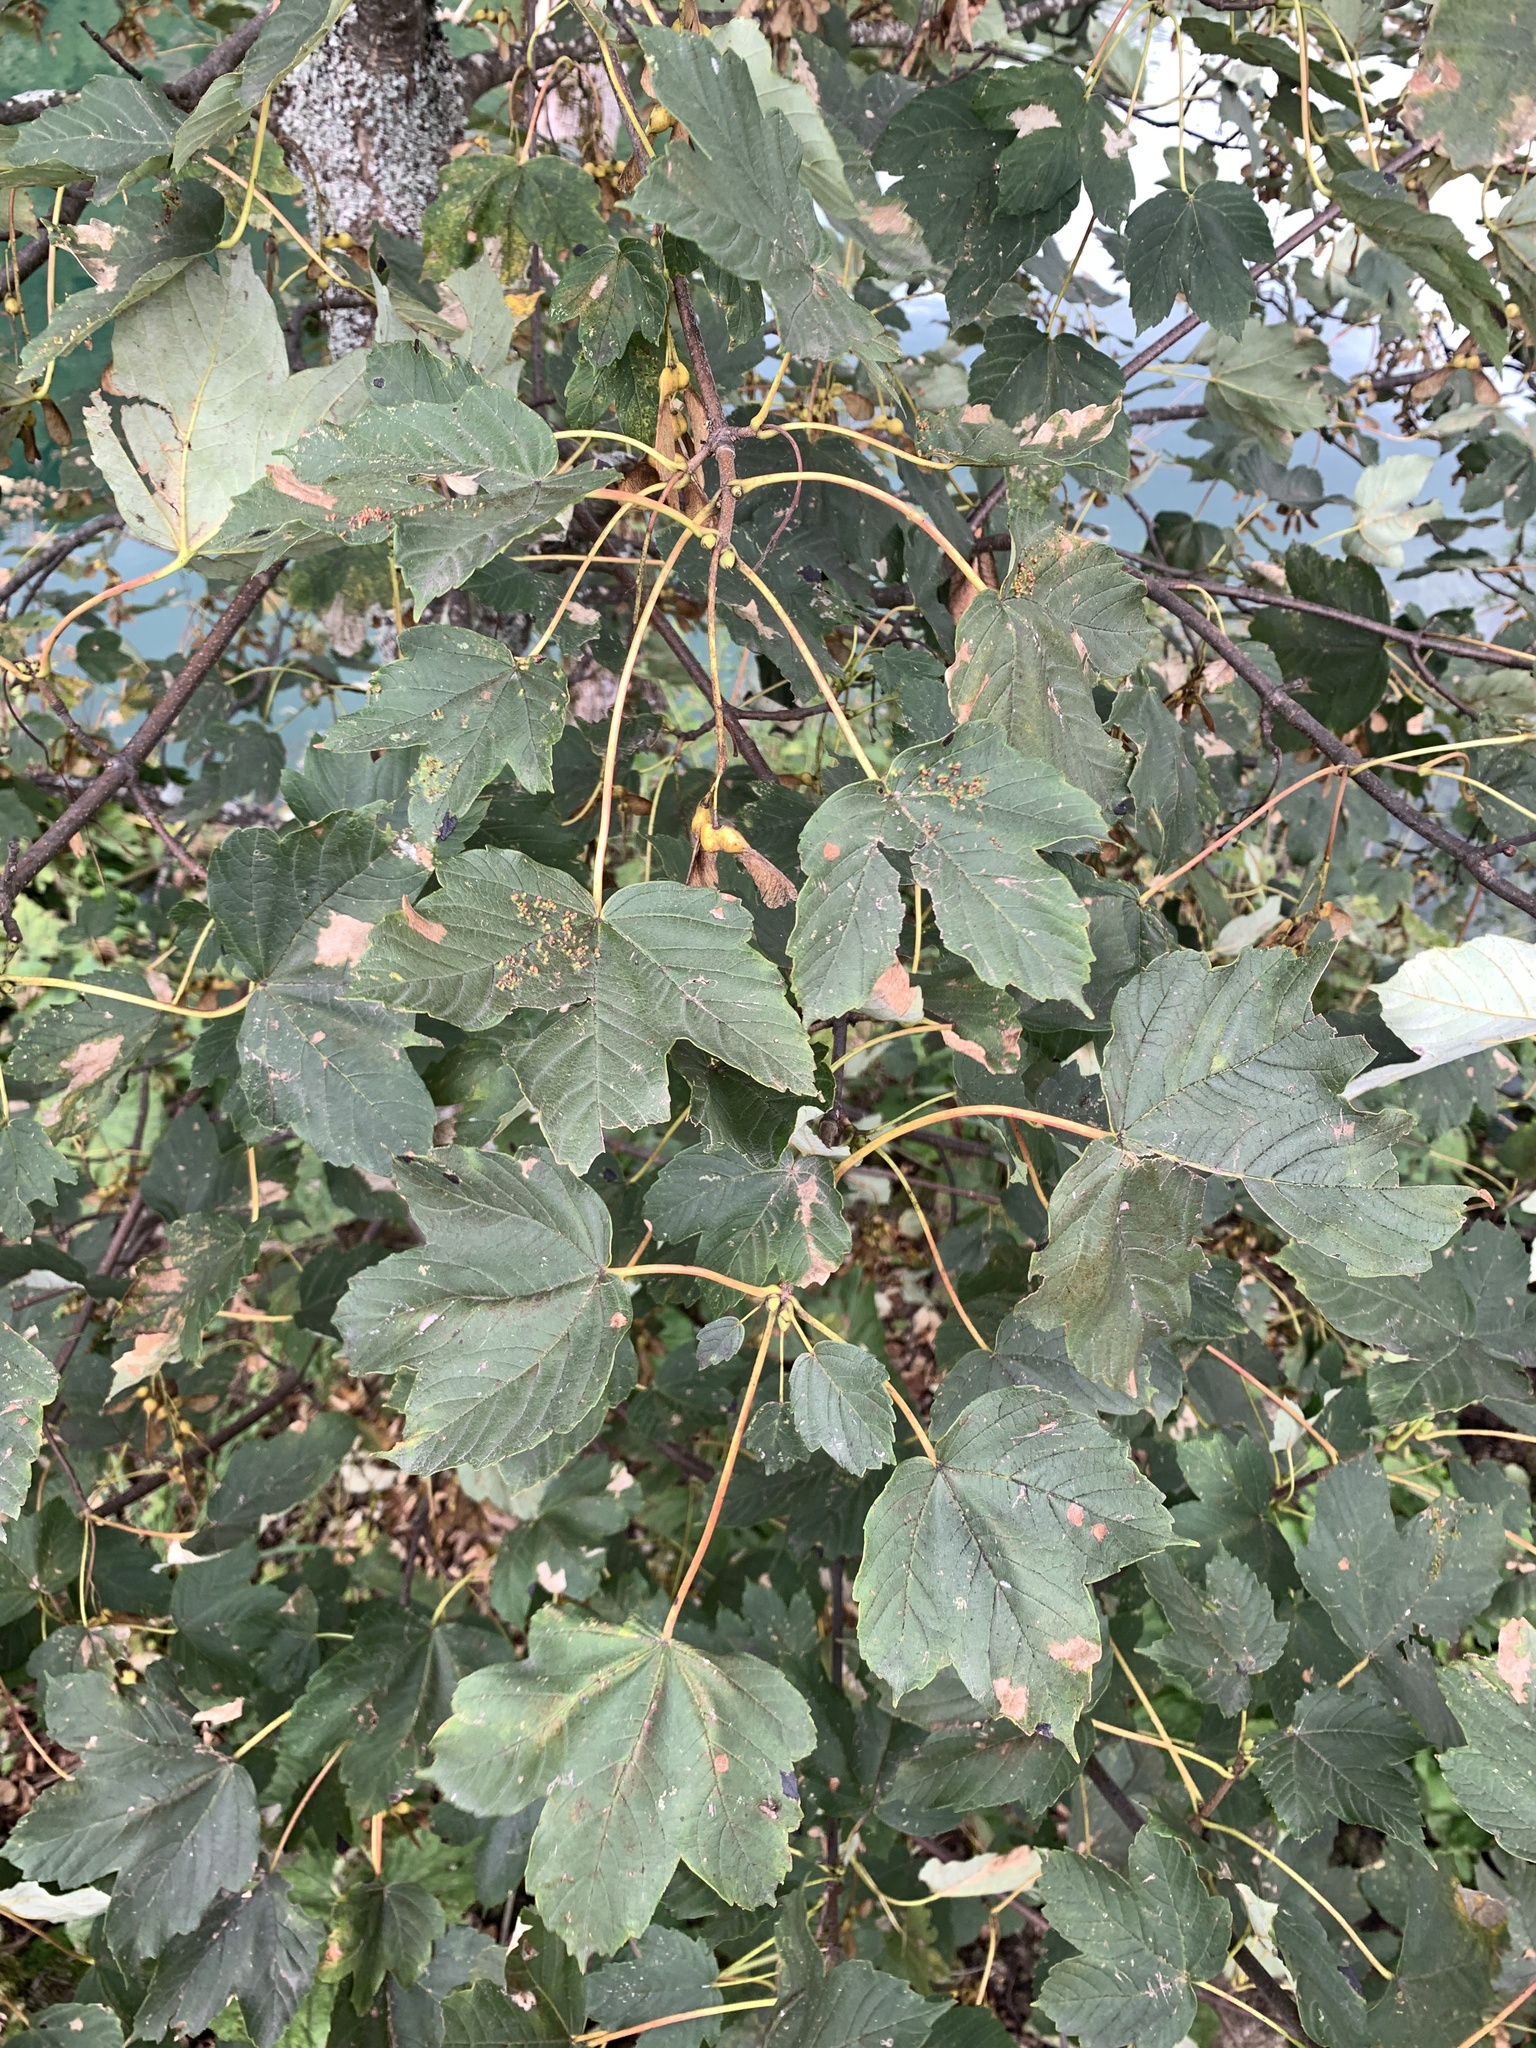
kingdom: Plantae
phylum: Tracheophyta
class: Magnoliopsida
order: Sapindales
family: Sapindaceae
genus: Acer
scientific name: Acer pseudoplatanus
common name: Sycamore
